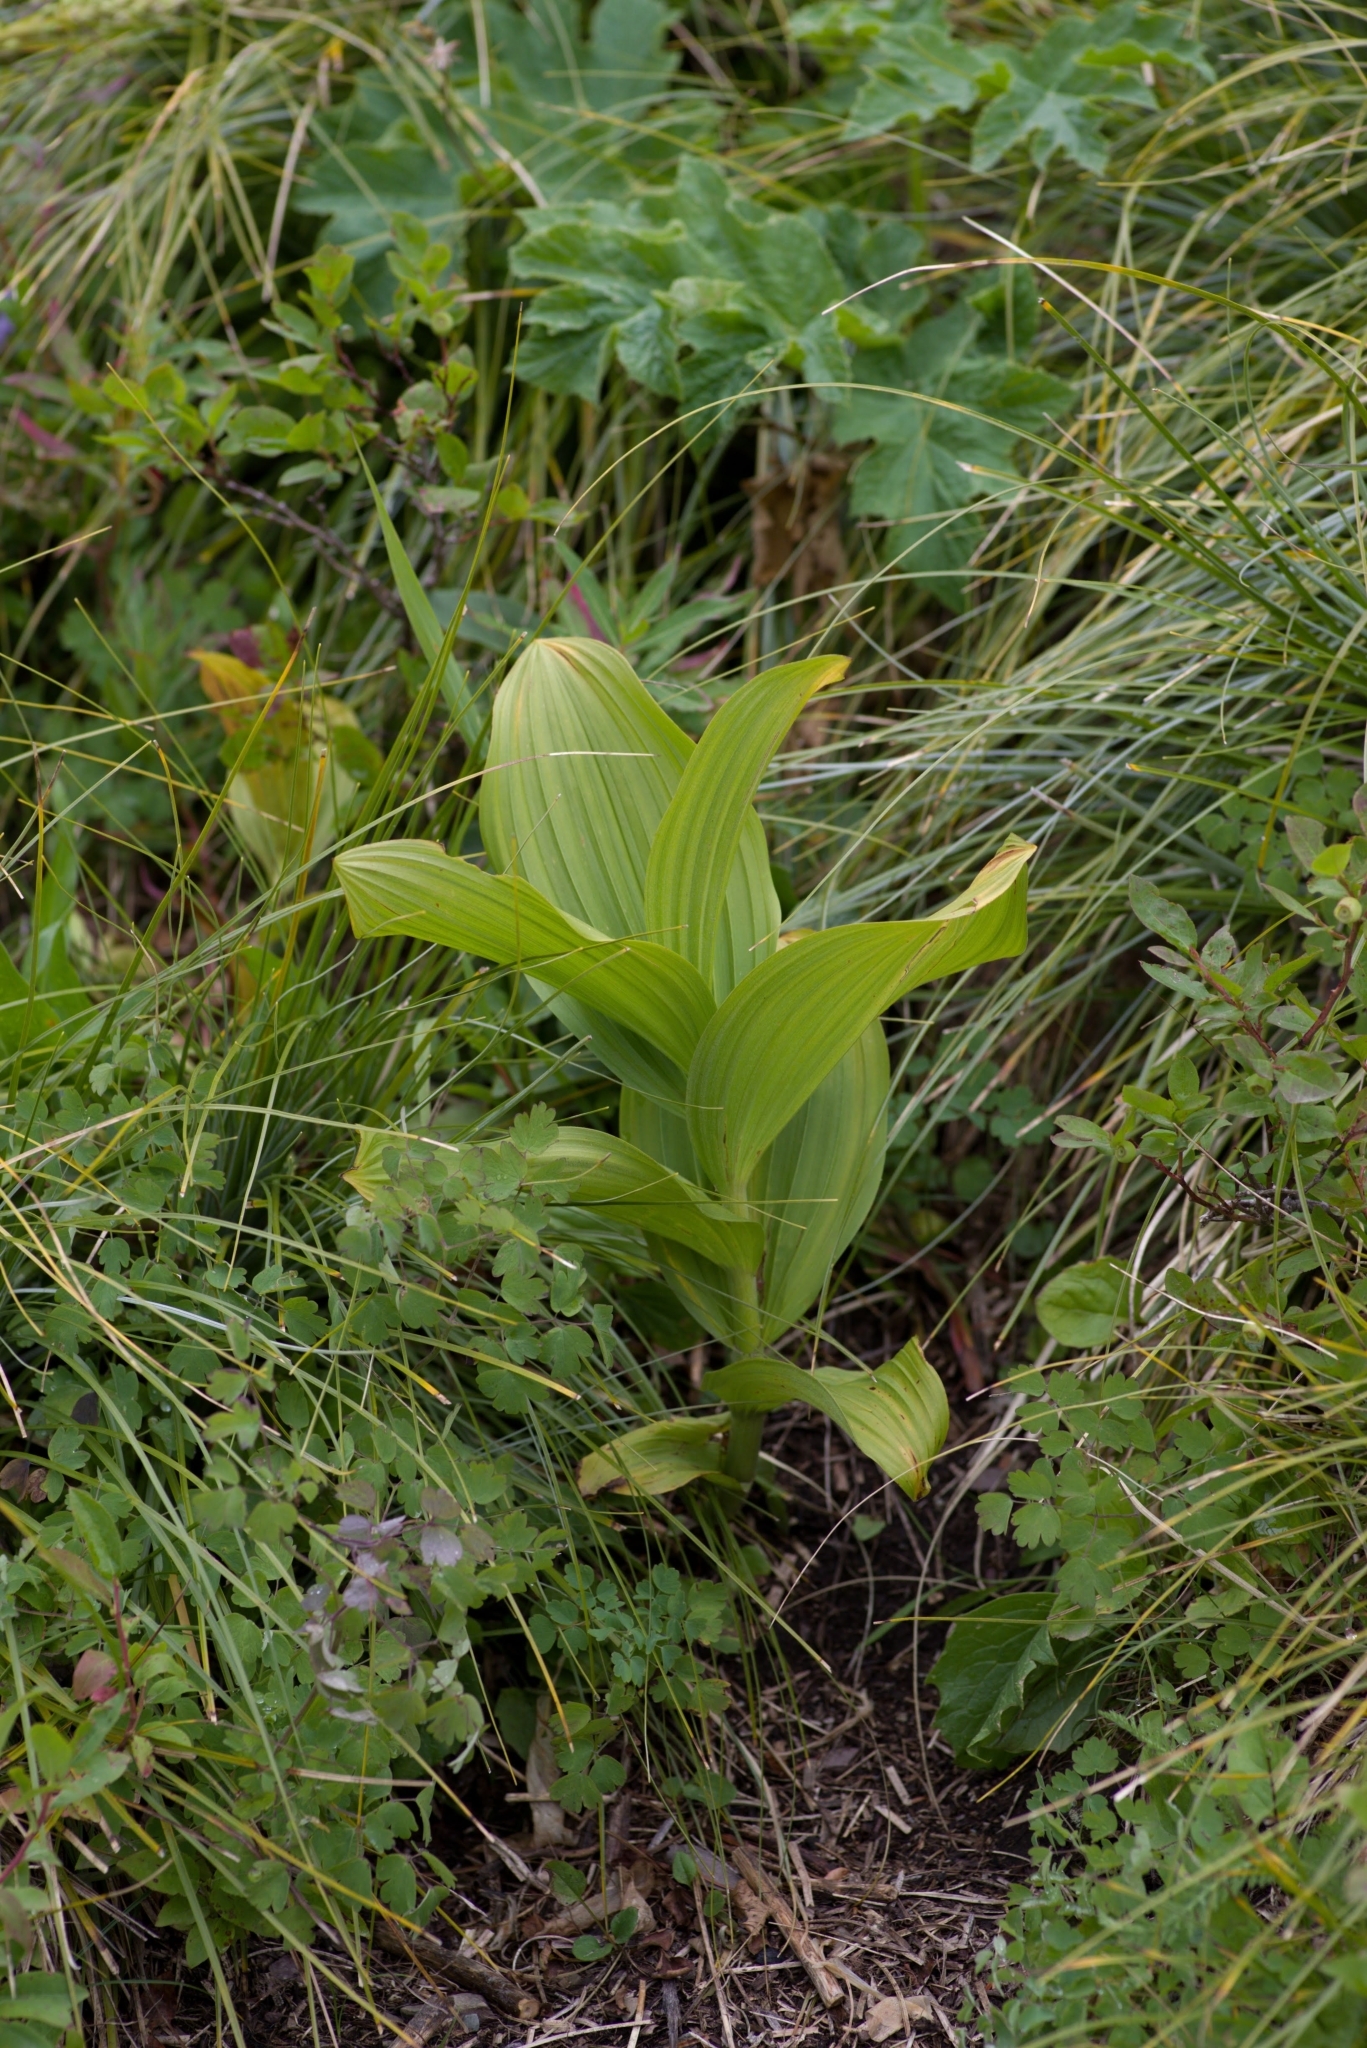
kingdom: Plantae
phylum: Tracheophyta
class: Liliopsida
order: Liliales
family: Melanthiaceae
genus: Veratrum
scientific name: Veratrum viride
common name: American false hellebore
